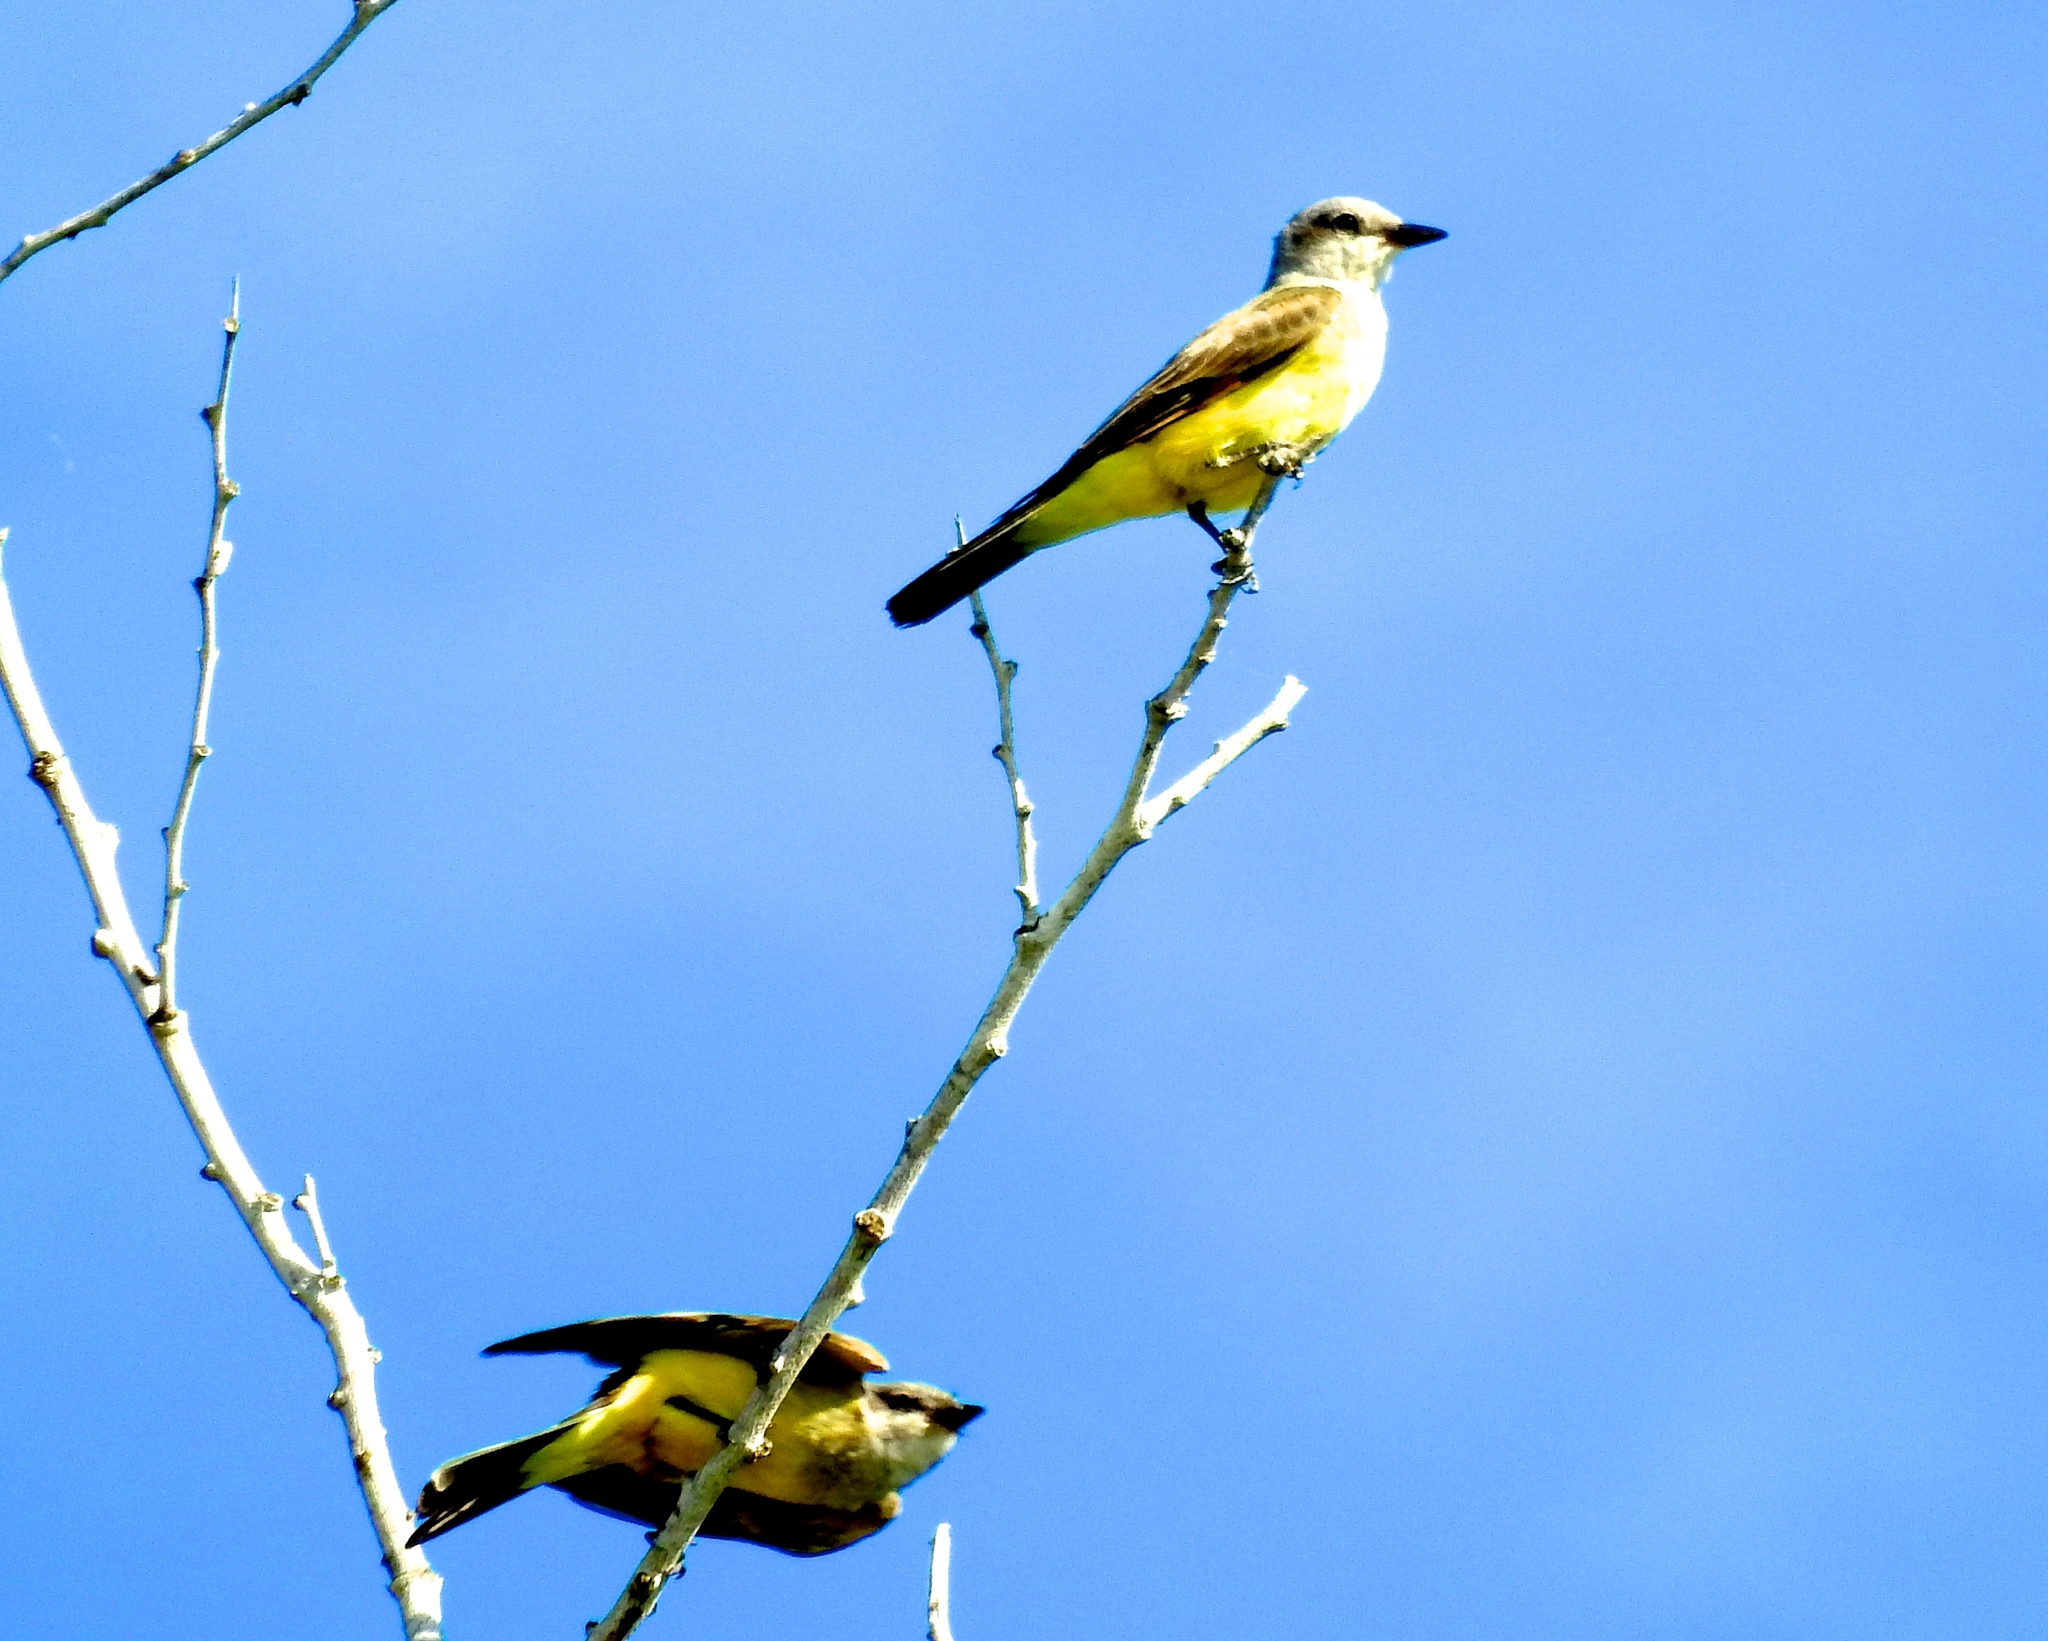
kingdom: Animalia
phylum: Chordata
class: Aves
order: Passeriformes
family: Tyrannidae
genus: Tyrannus
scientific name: Tyrannus verticalis
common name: Western kingbird
